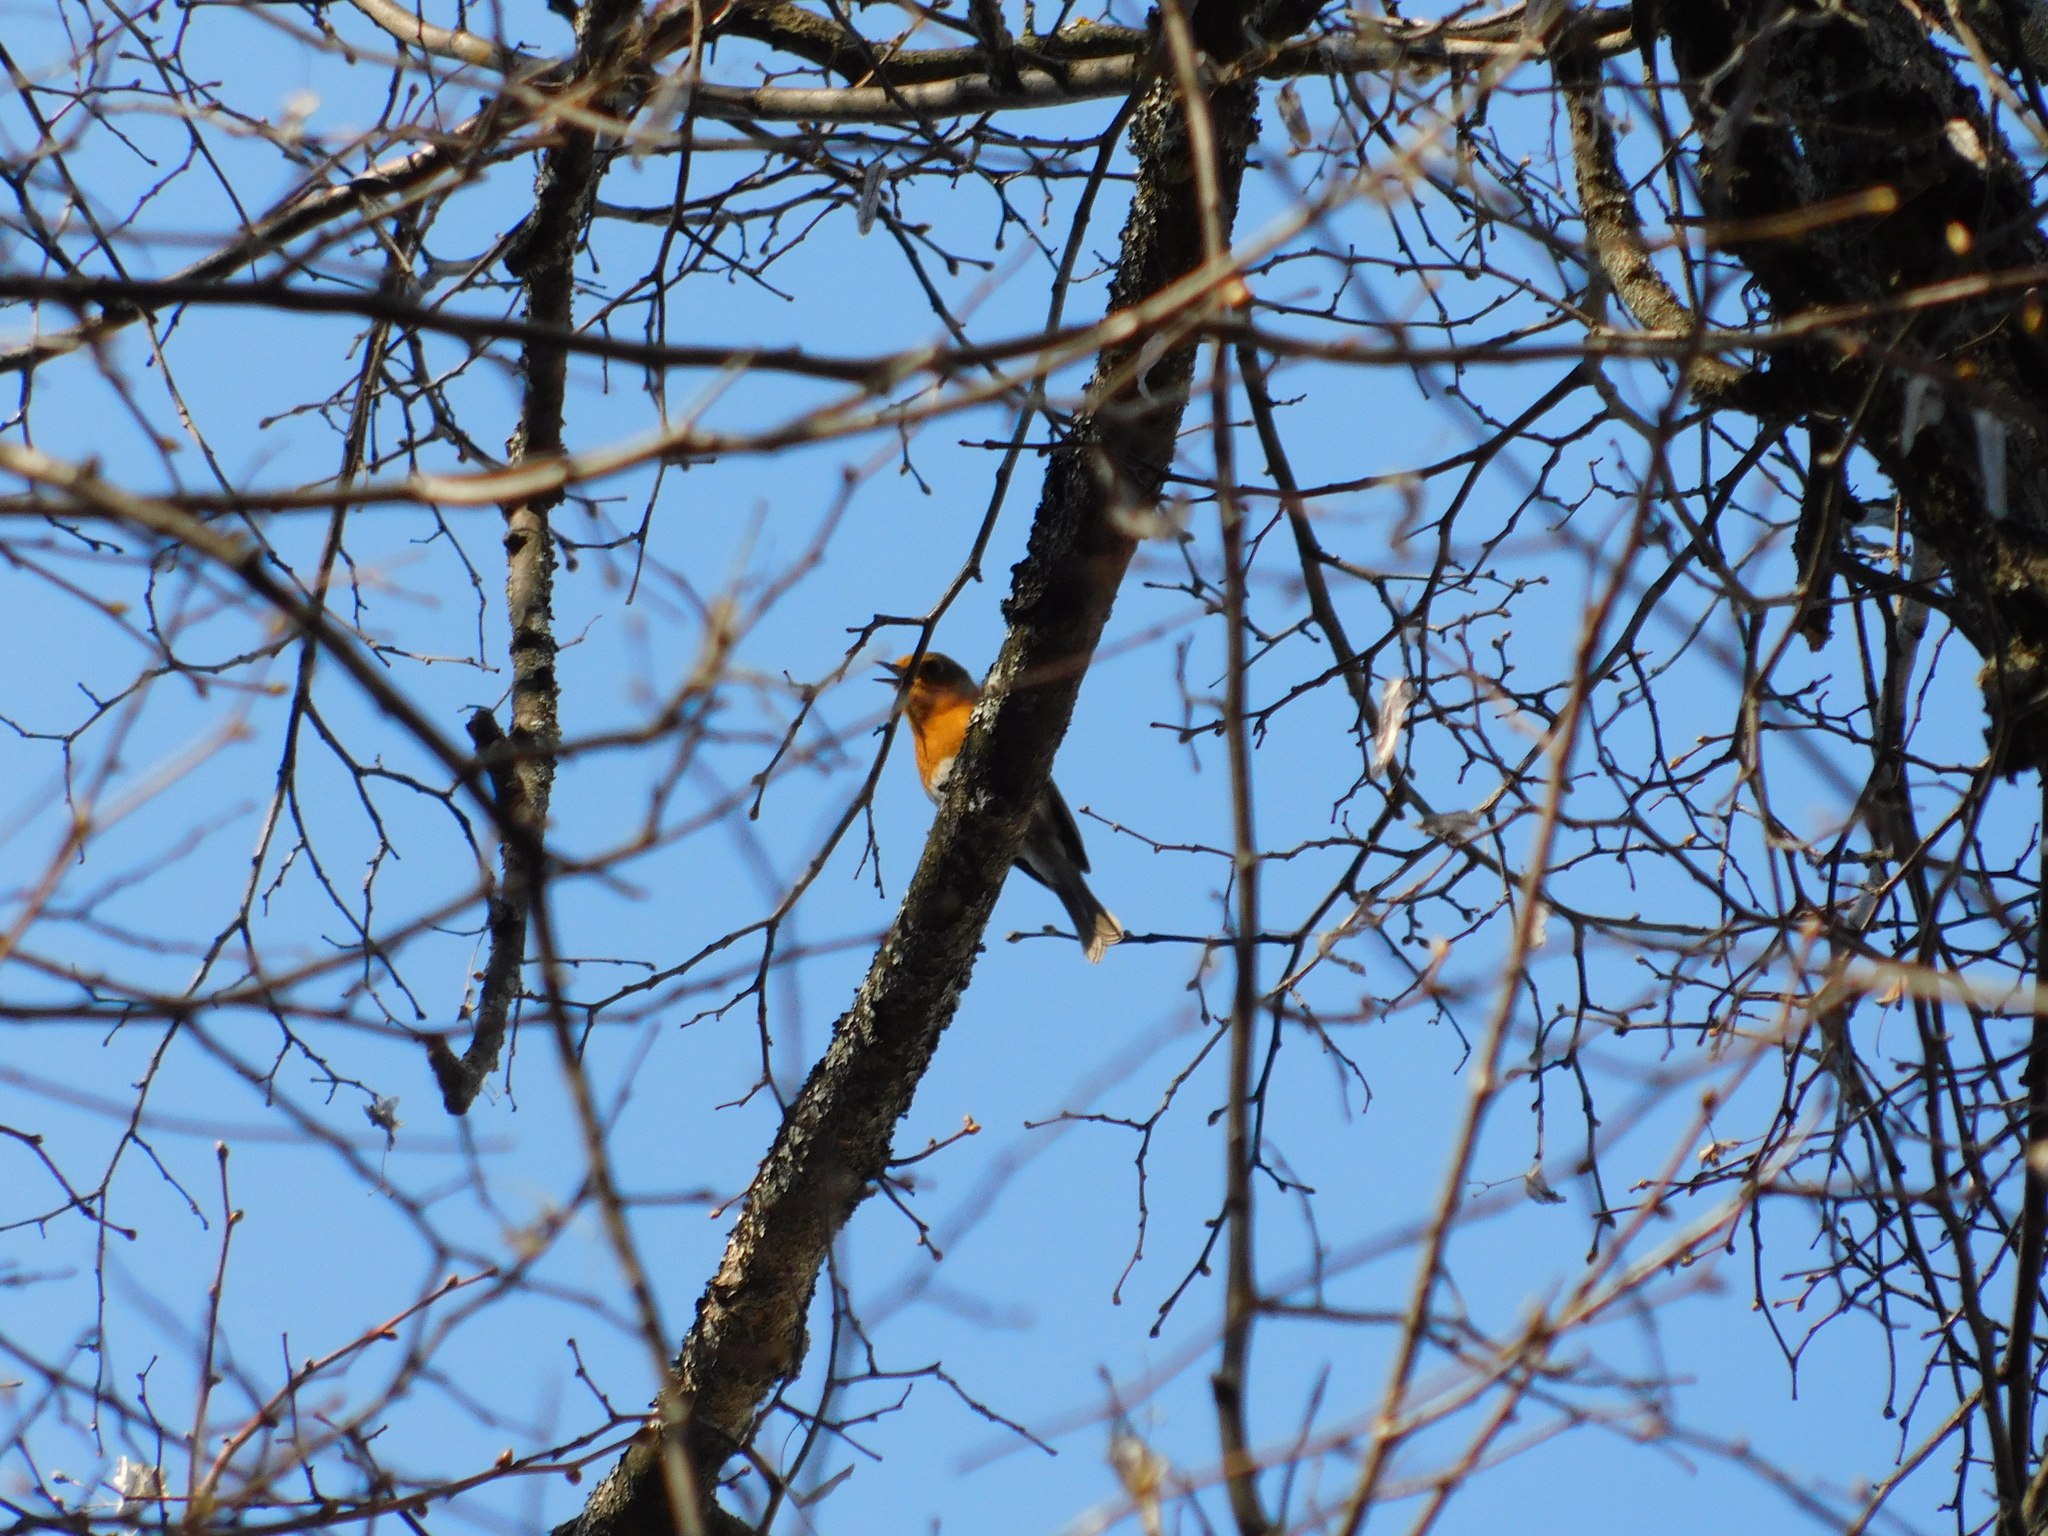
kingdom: Animalia
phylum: Chordata
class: Aves
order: Passeriformes
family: Muscicapidae
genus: Erithacus
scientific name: Erithacus rubecula
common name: European robin
